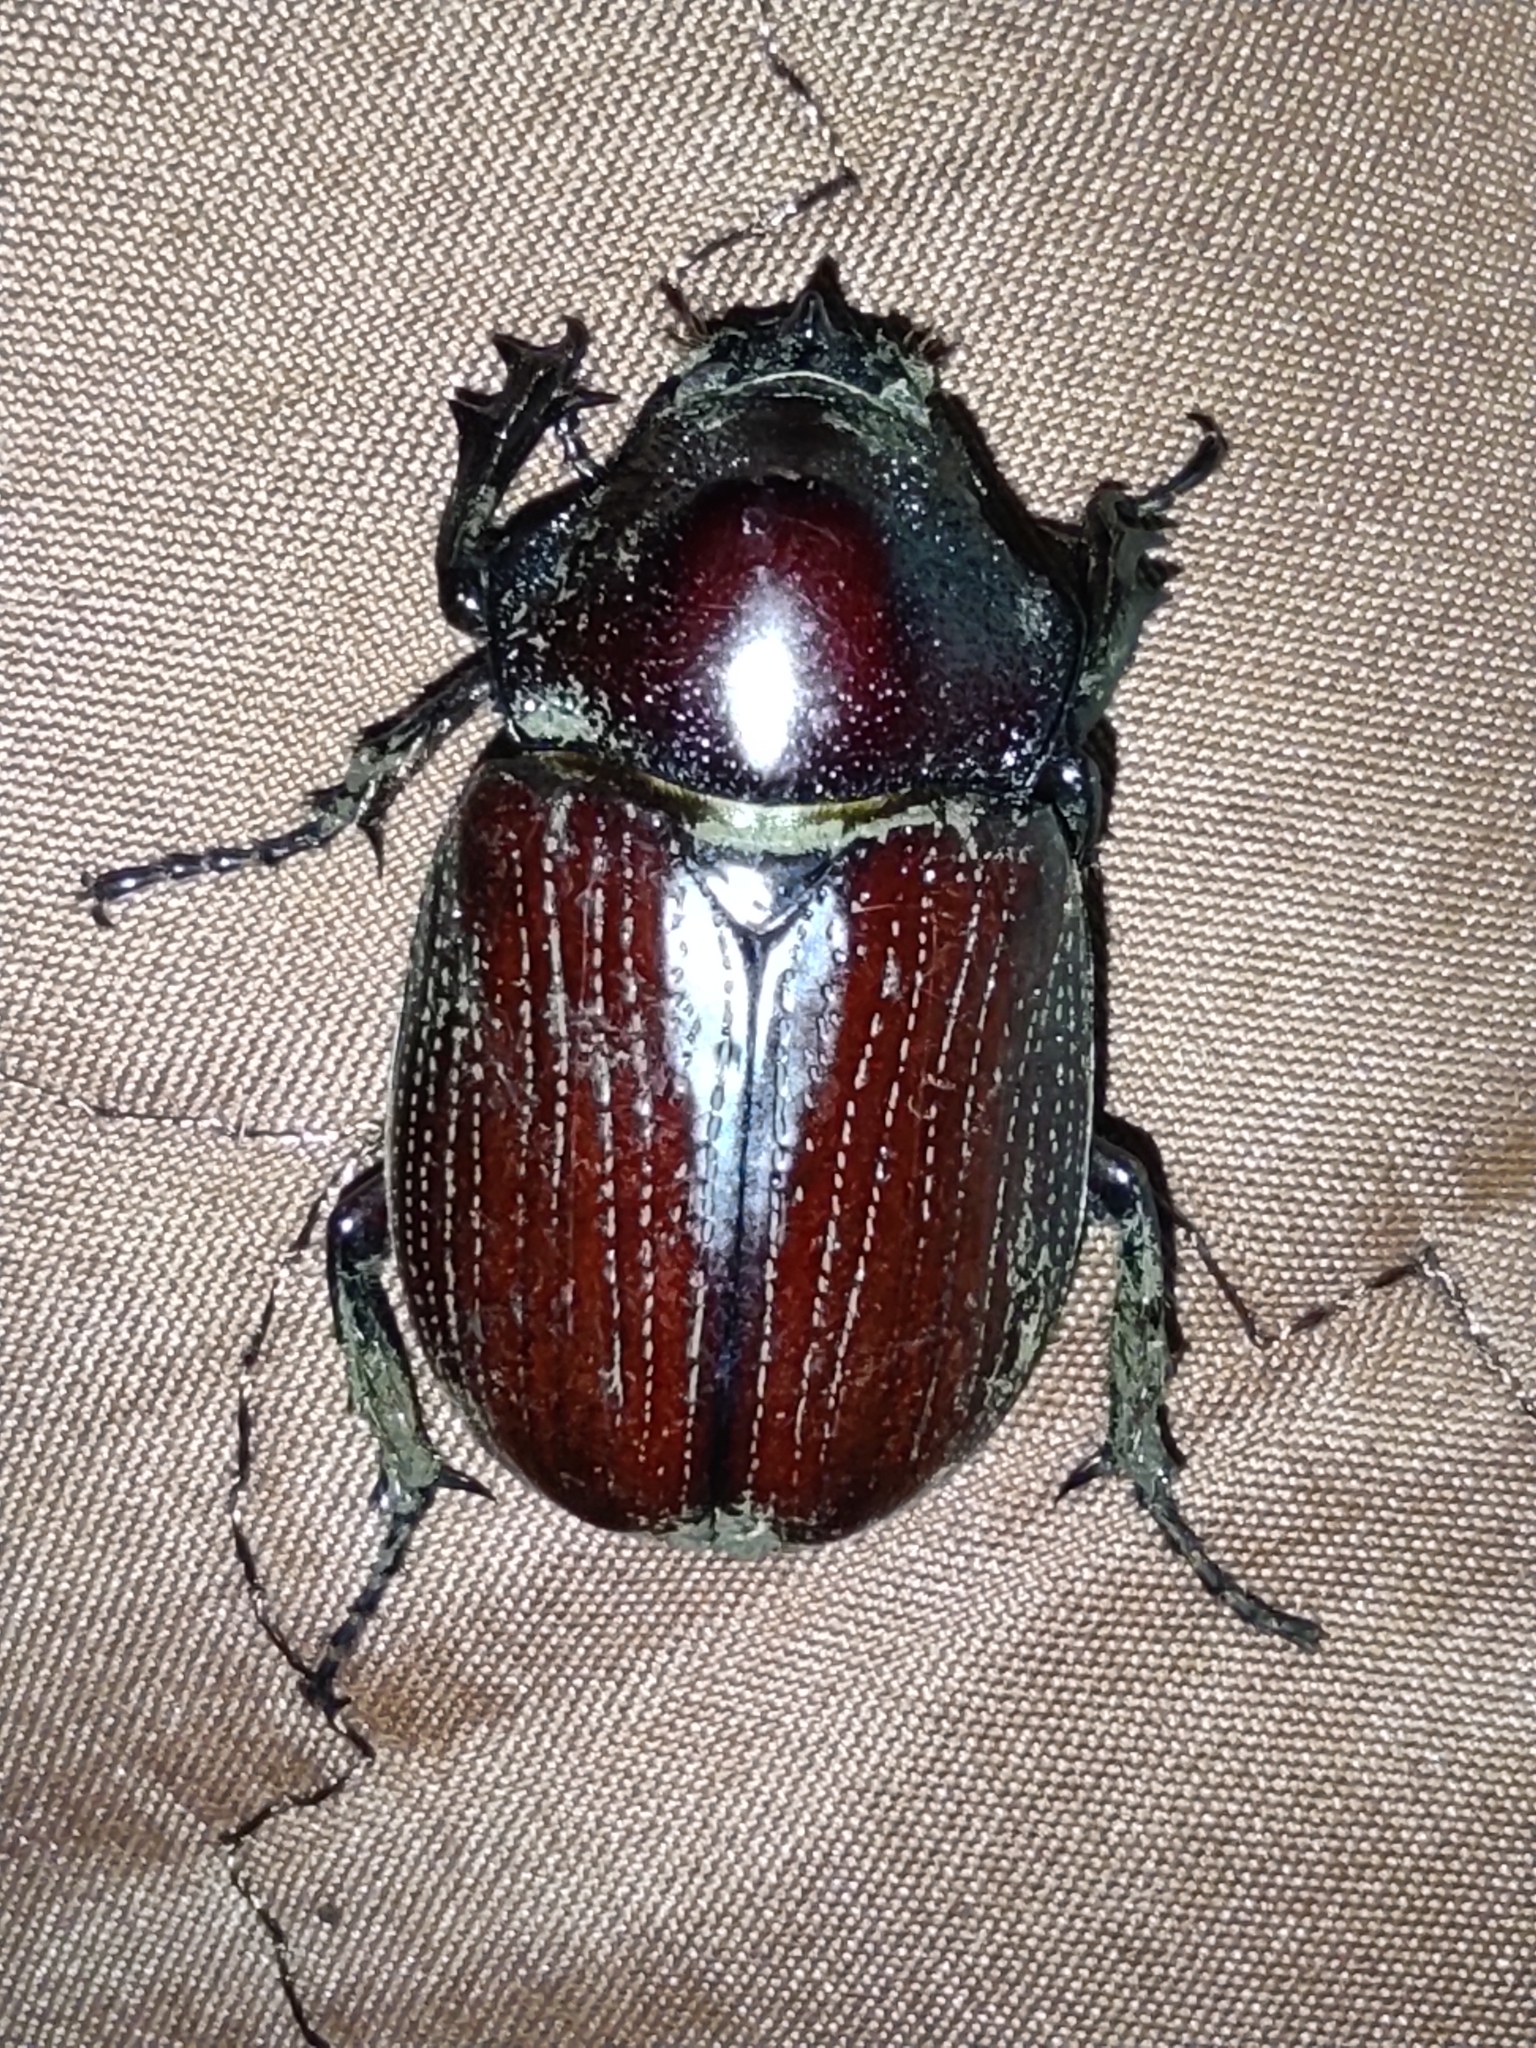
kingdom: Animalia
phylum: Arthropoda
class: Insecta
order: Coleoptera
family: Scarabaeidae
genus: Coelosis
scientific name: Coelosis biloba
